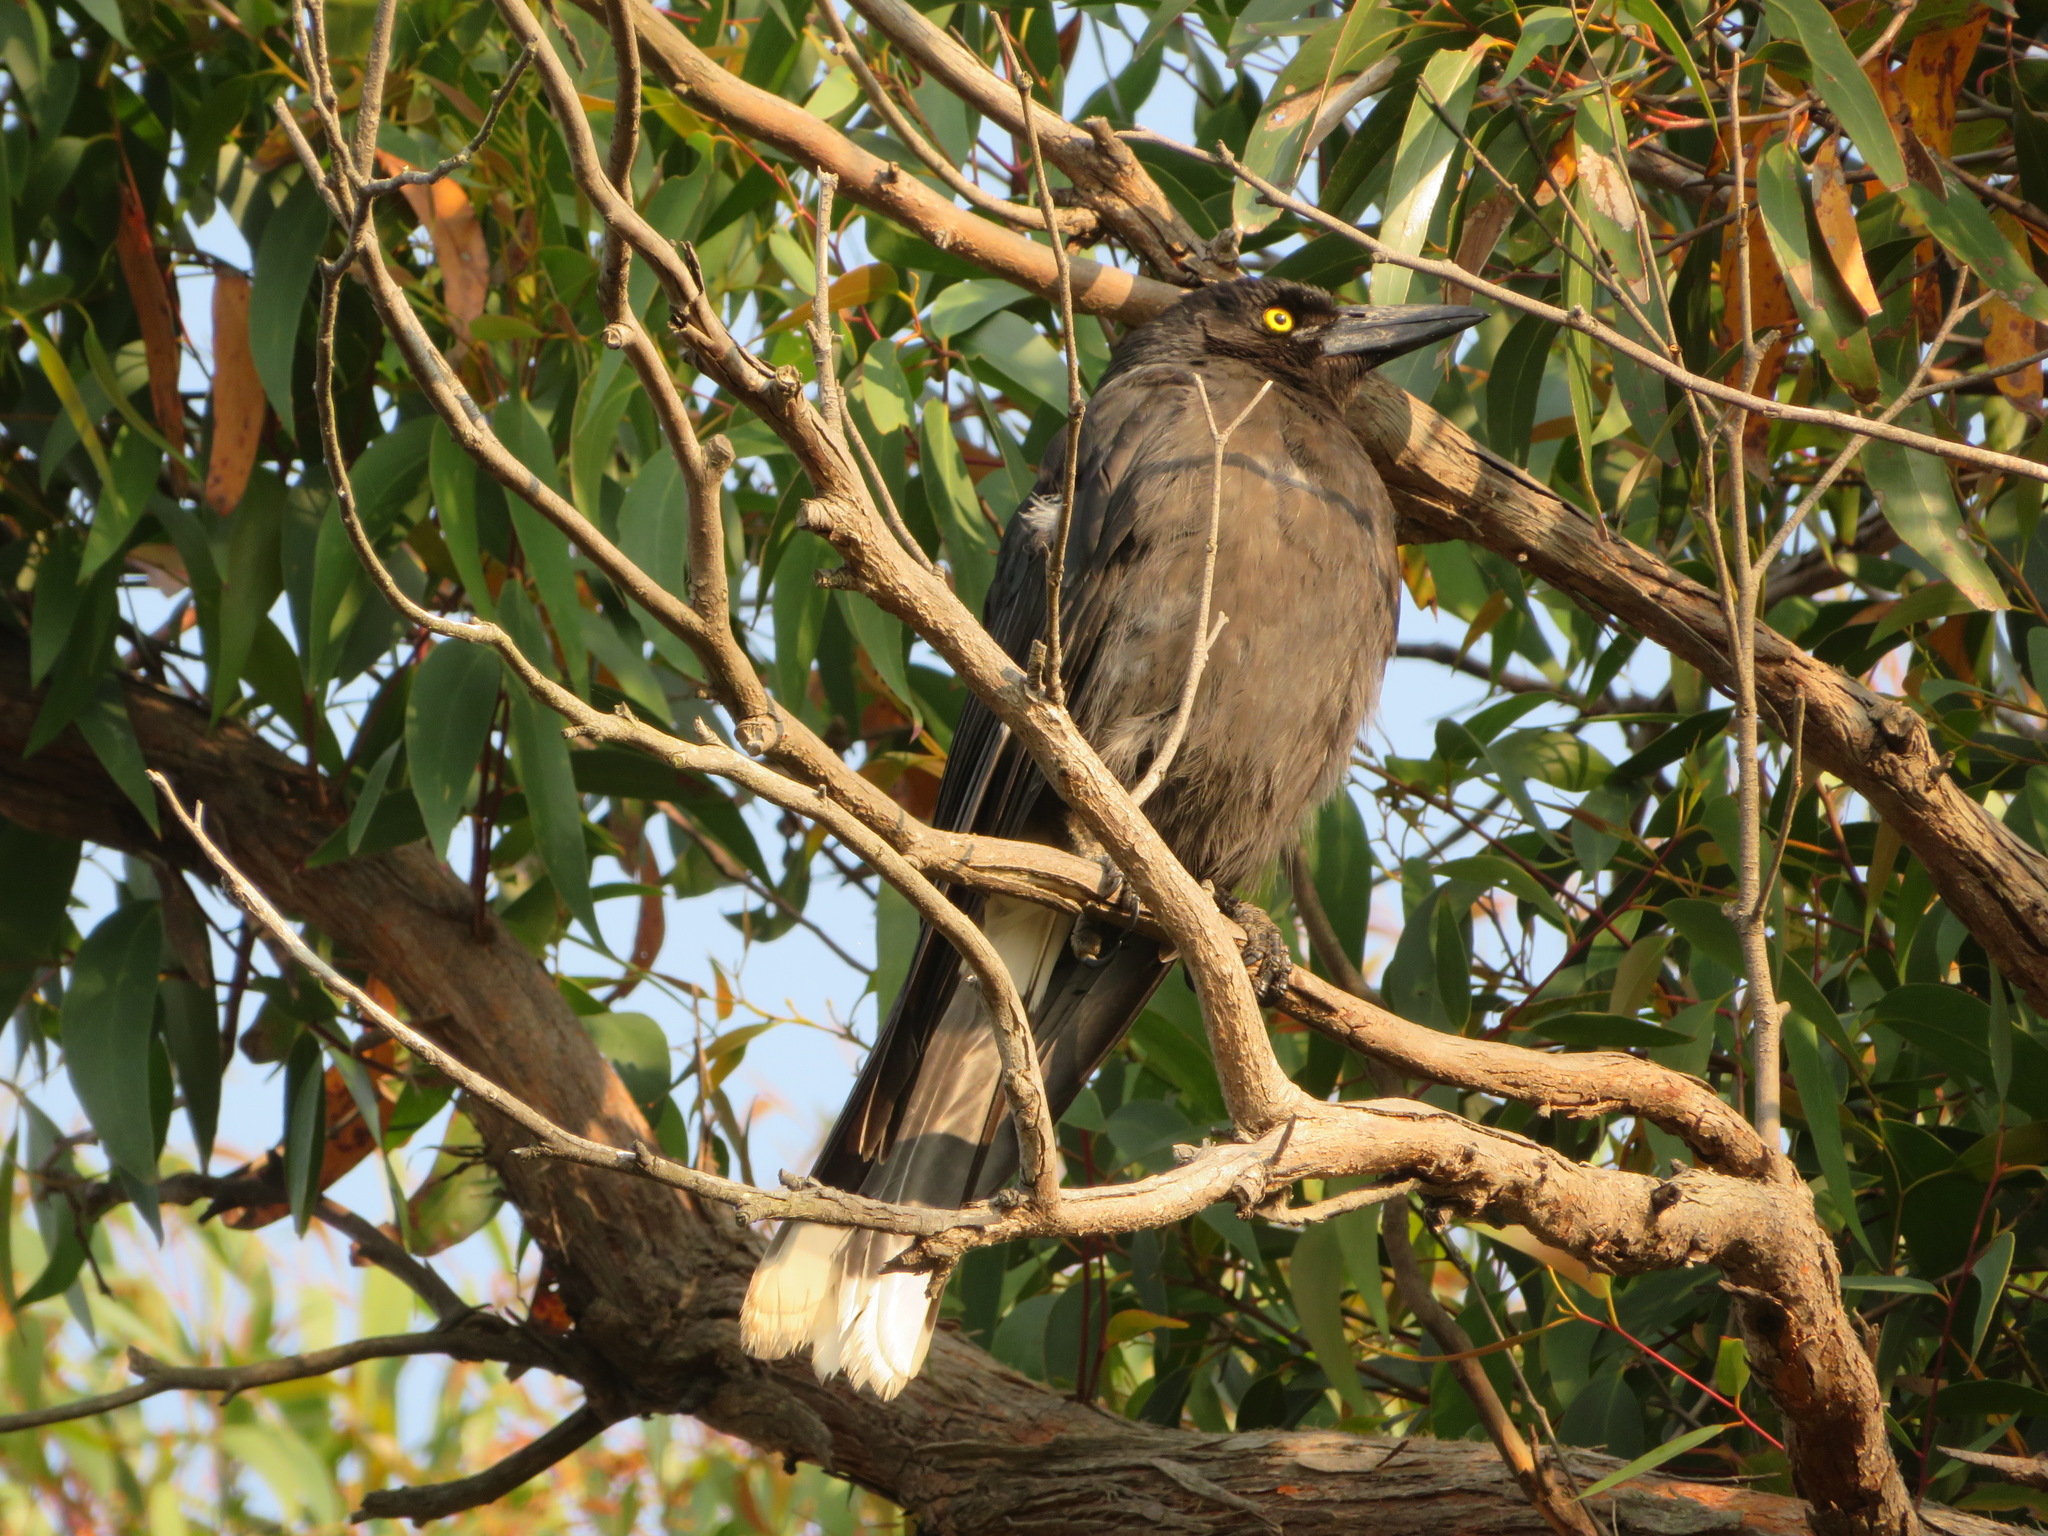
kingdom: Animalia
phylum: Chordata
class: Aves
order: Passeriformes
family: Cracticidae
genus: Strepera
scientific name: Strepera graculina
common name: Pied currawong
